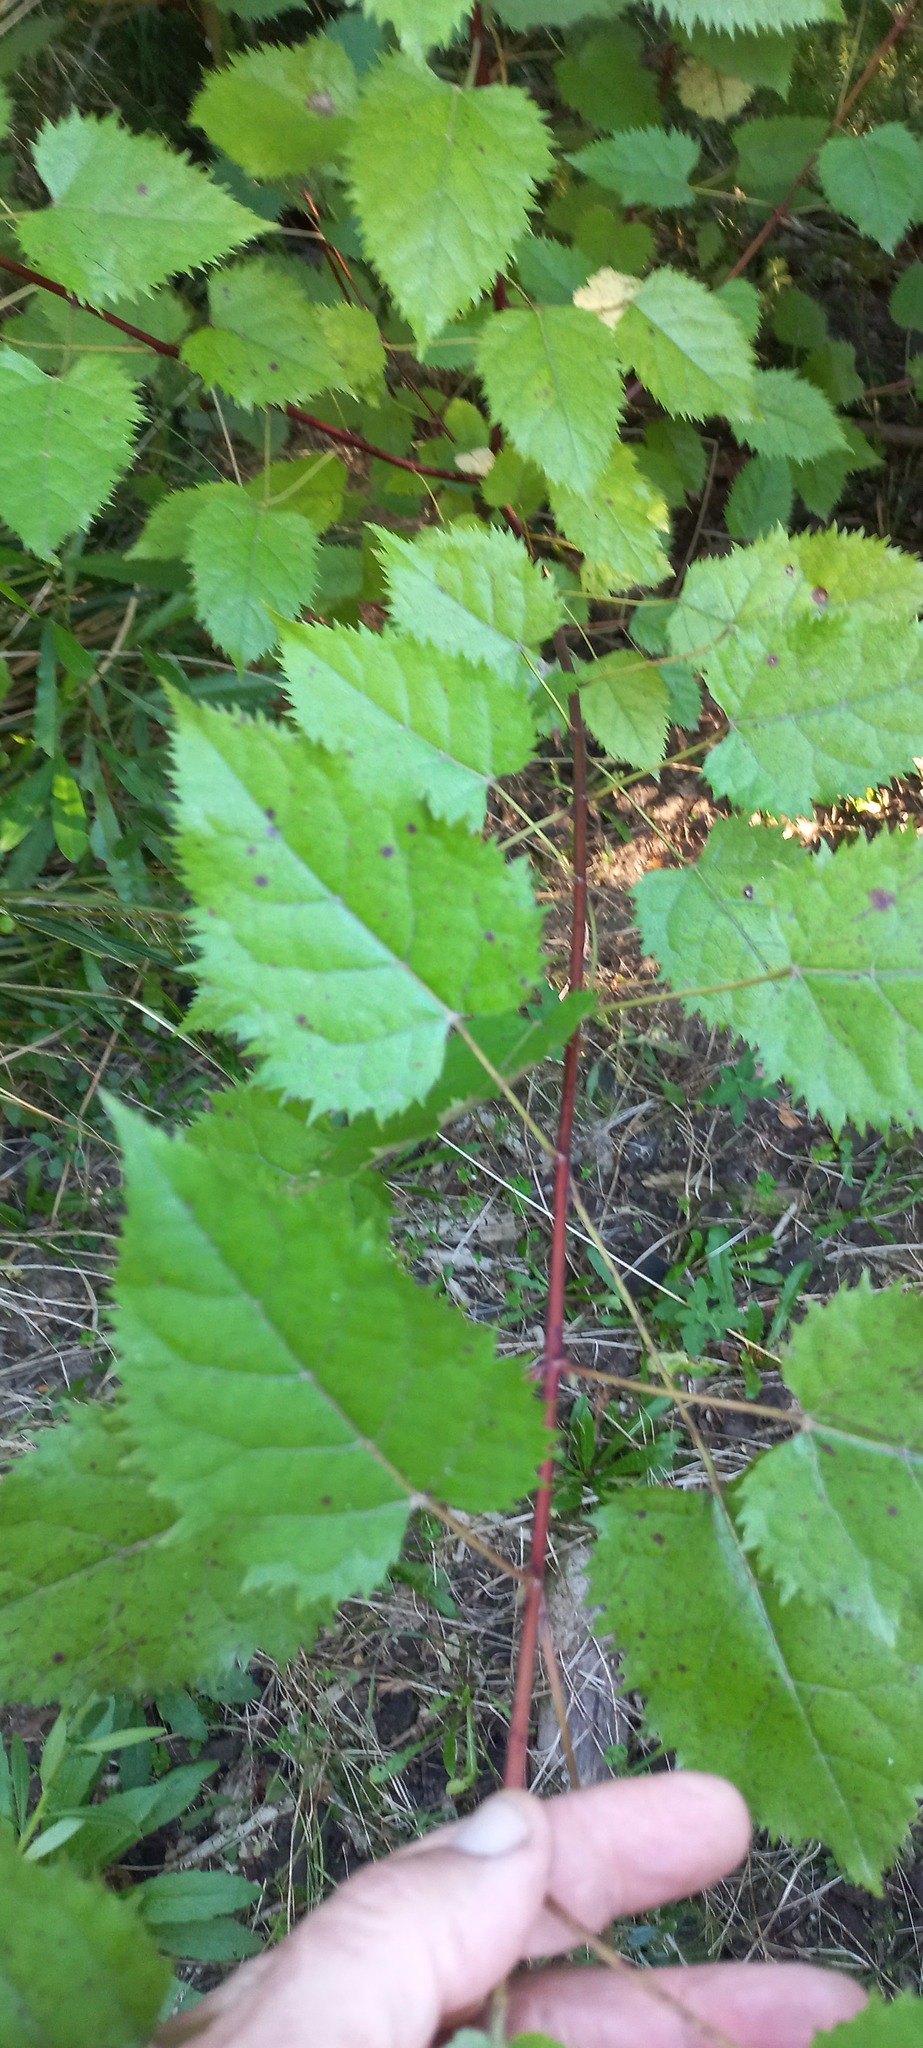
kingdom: Plantae
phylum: Tracheophyta
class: Magnoliopsida
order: Oxalidales
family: Elaeocarpaceae
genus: Aristotelia
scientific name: Aristotelia serrata
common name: New zealand wineberry
